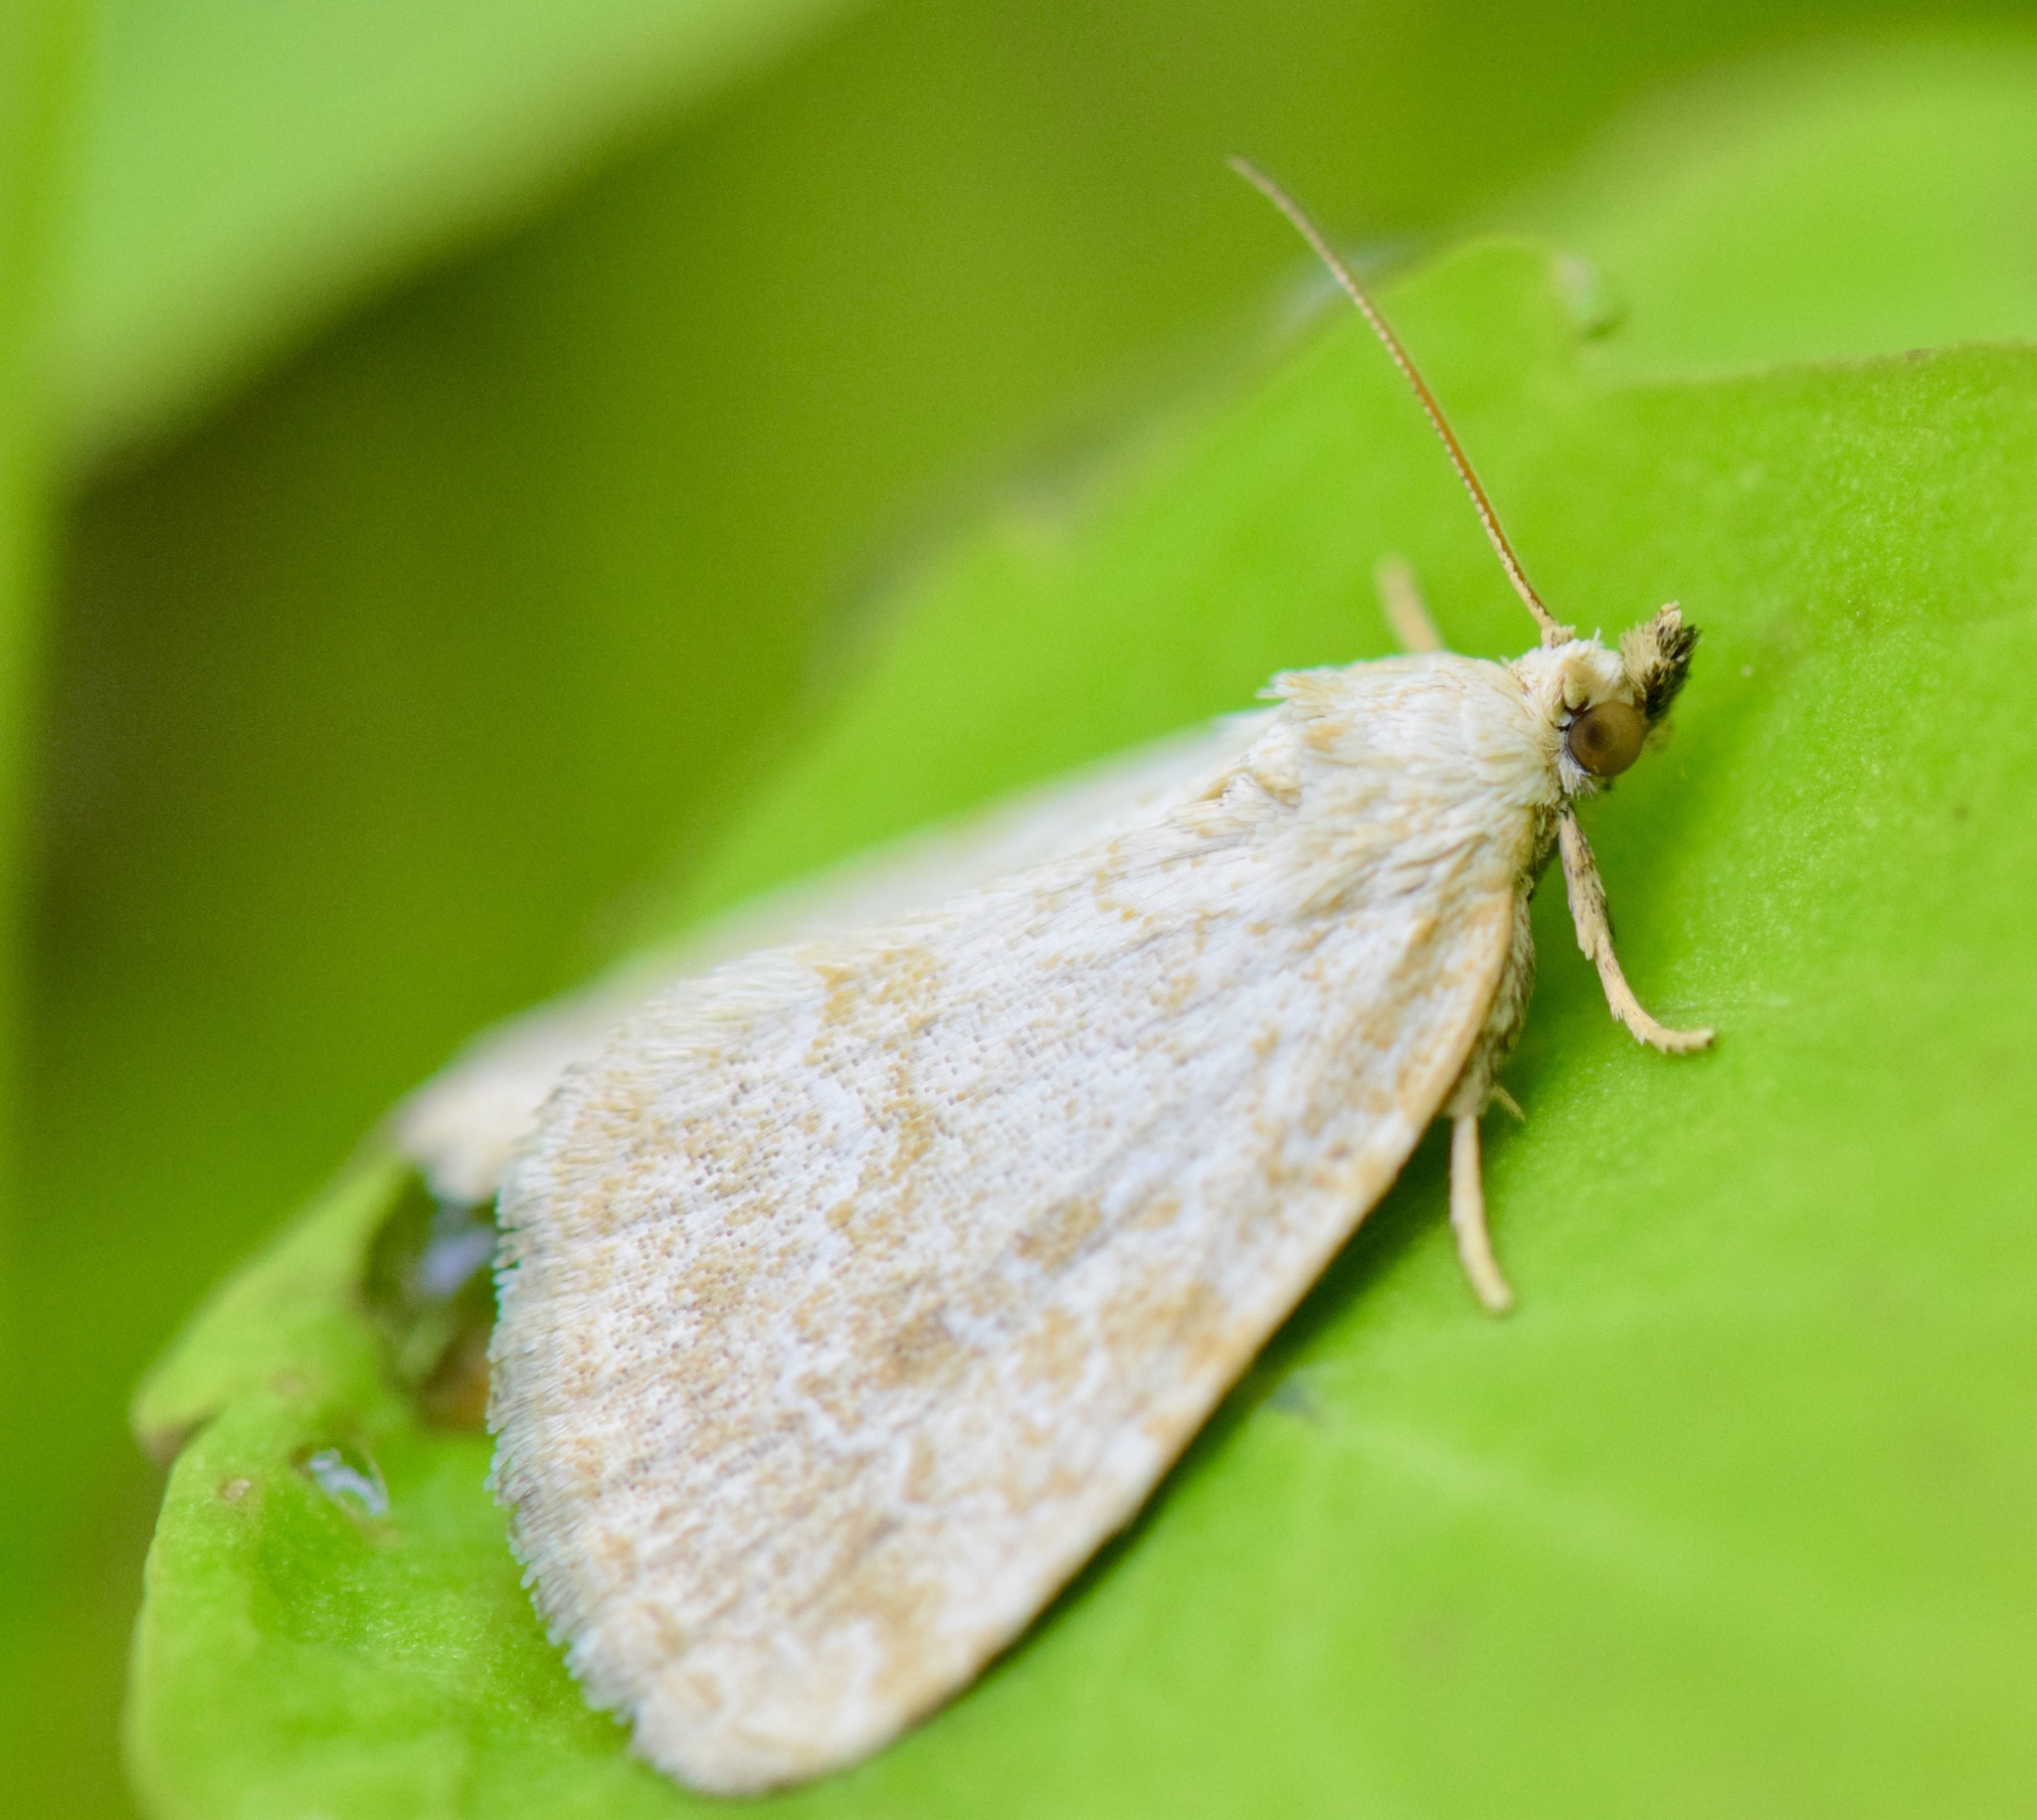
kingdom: Animalia
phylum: Arthropoda
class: Insecta
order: Lepidoptera
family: Noctuidae
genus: Protodeltote
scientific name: Protodeltote albidula
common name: Pale glyph
